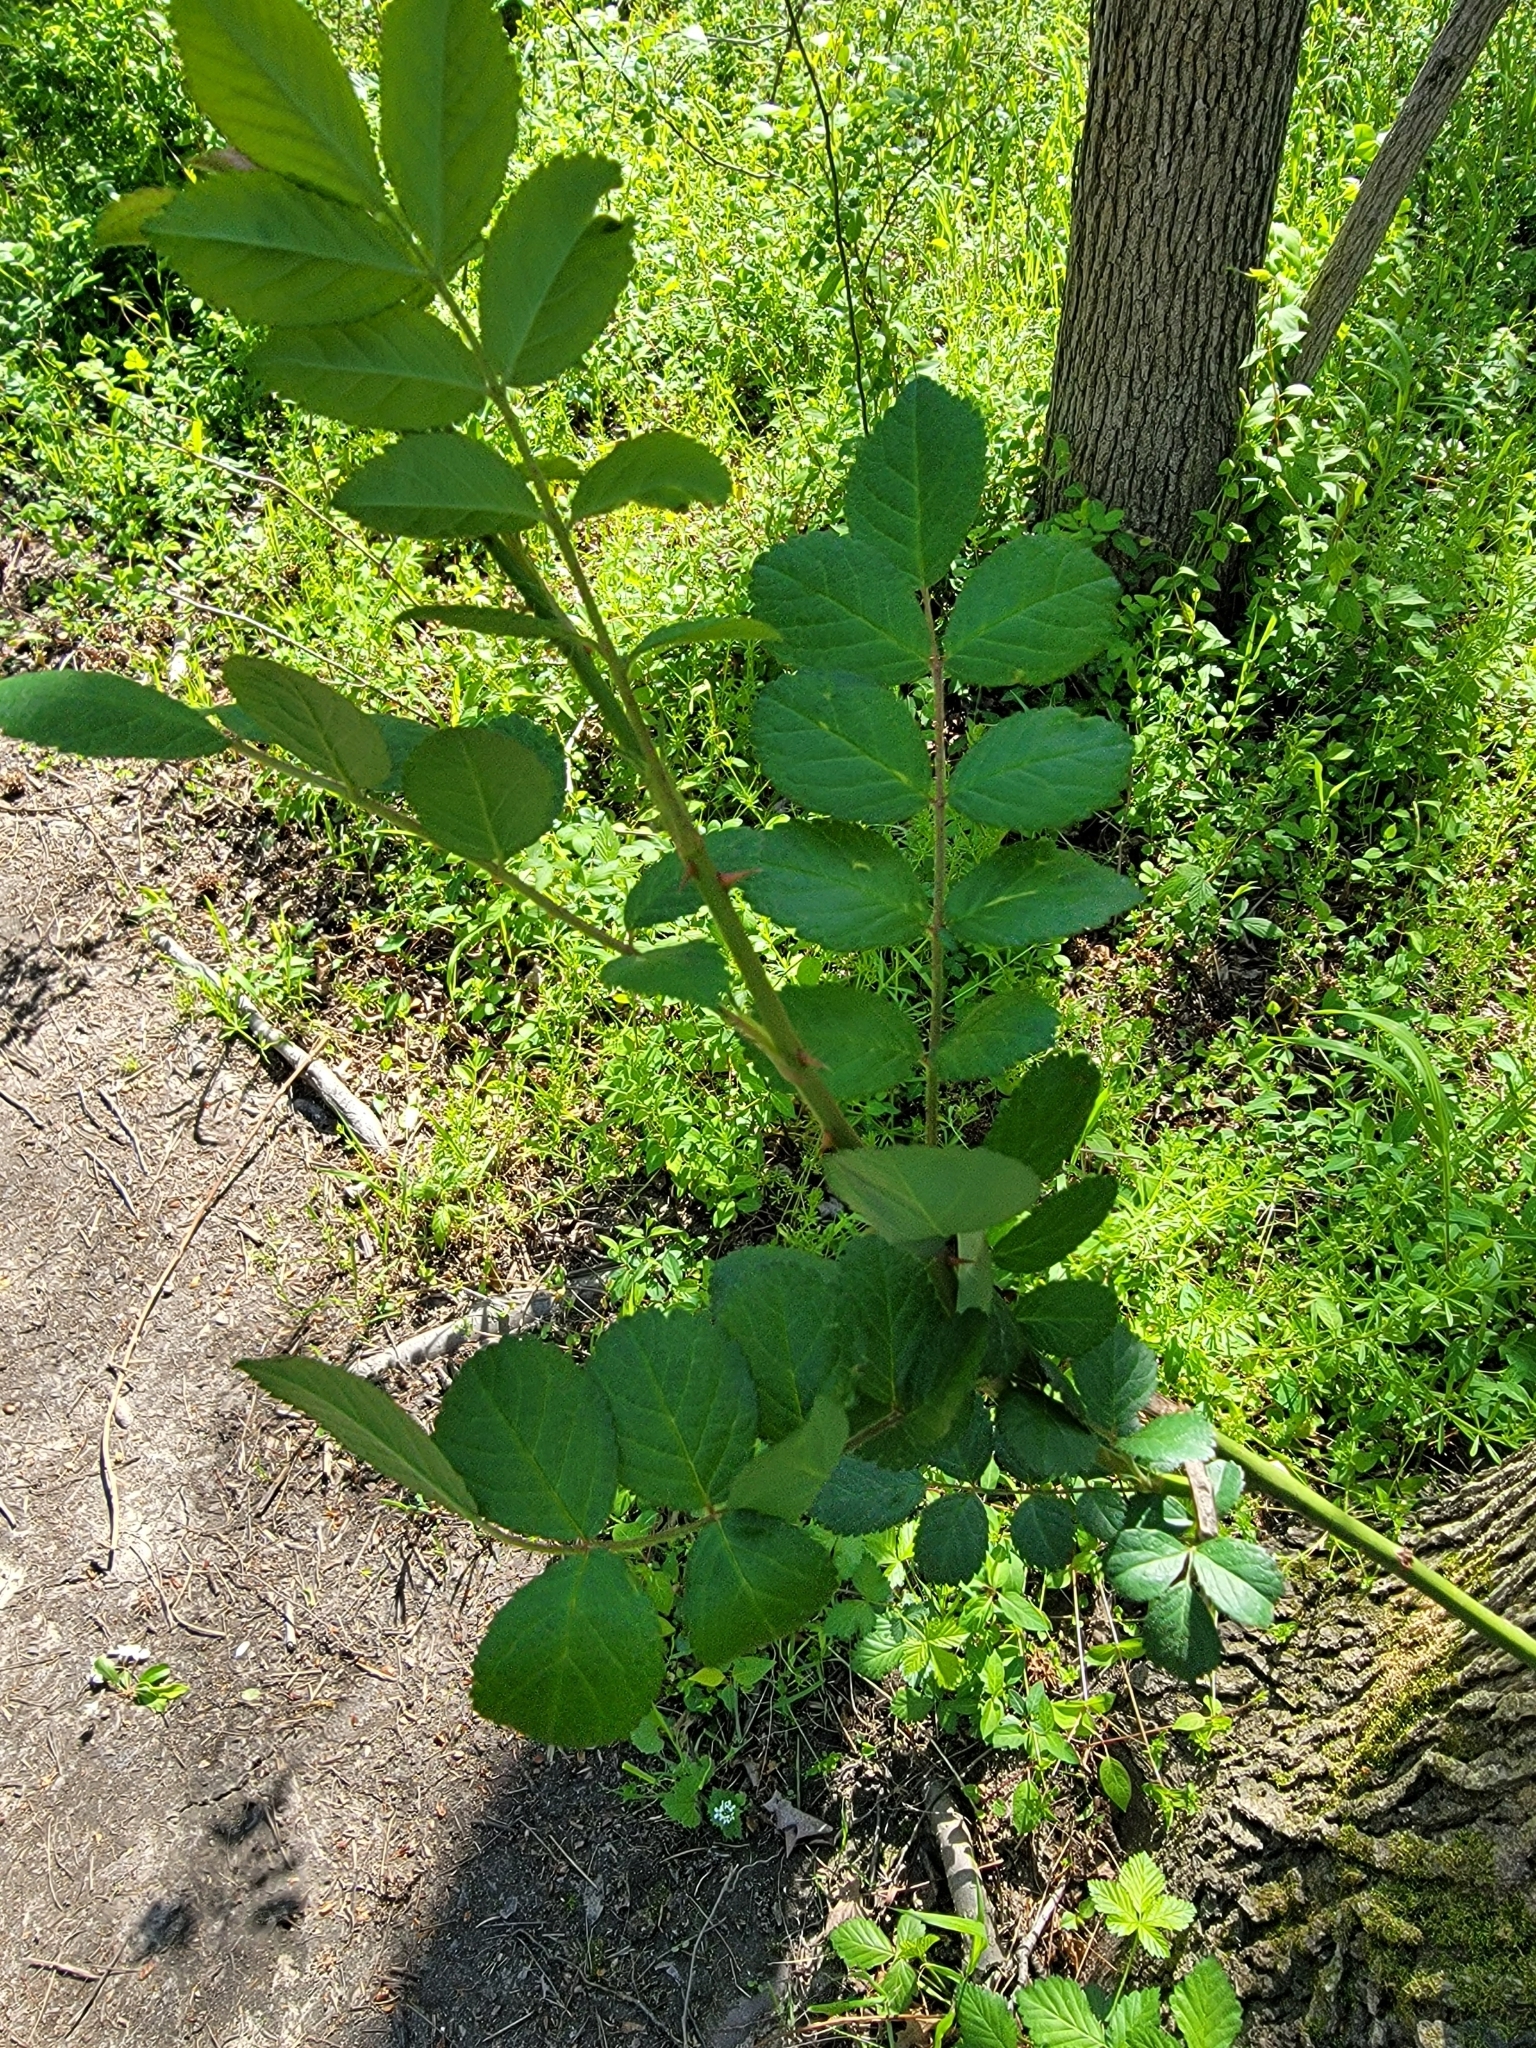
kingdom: Plantae
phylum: Tracheophyta
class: Magnoliopsida
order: Rosales
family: Rosaceae
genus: Rosa
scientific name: Rosa multiflora
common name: Multiflora rose
